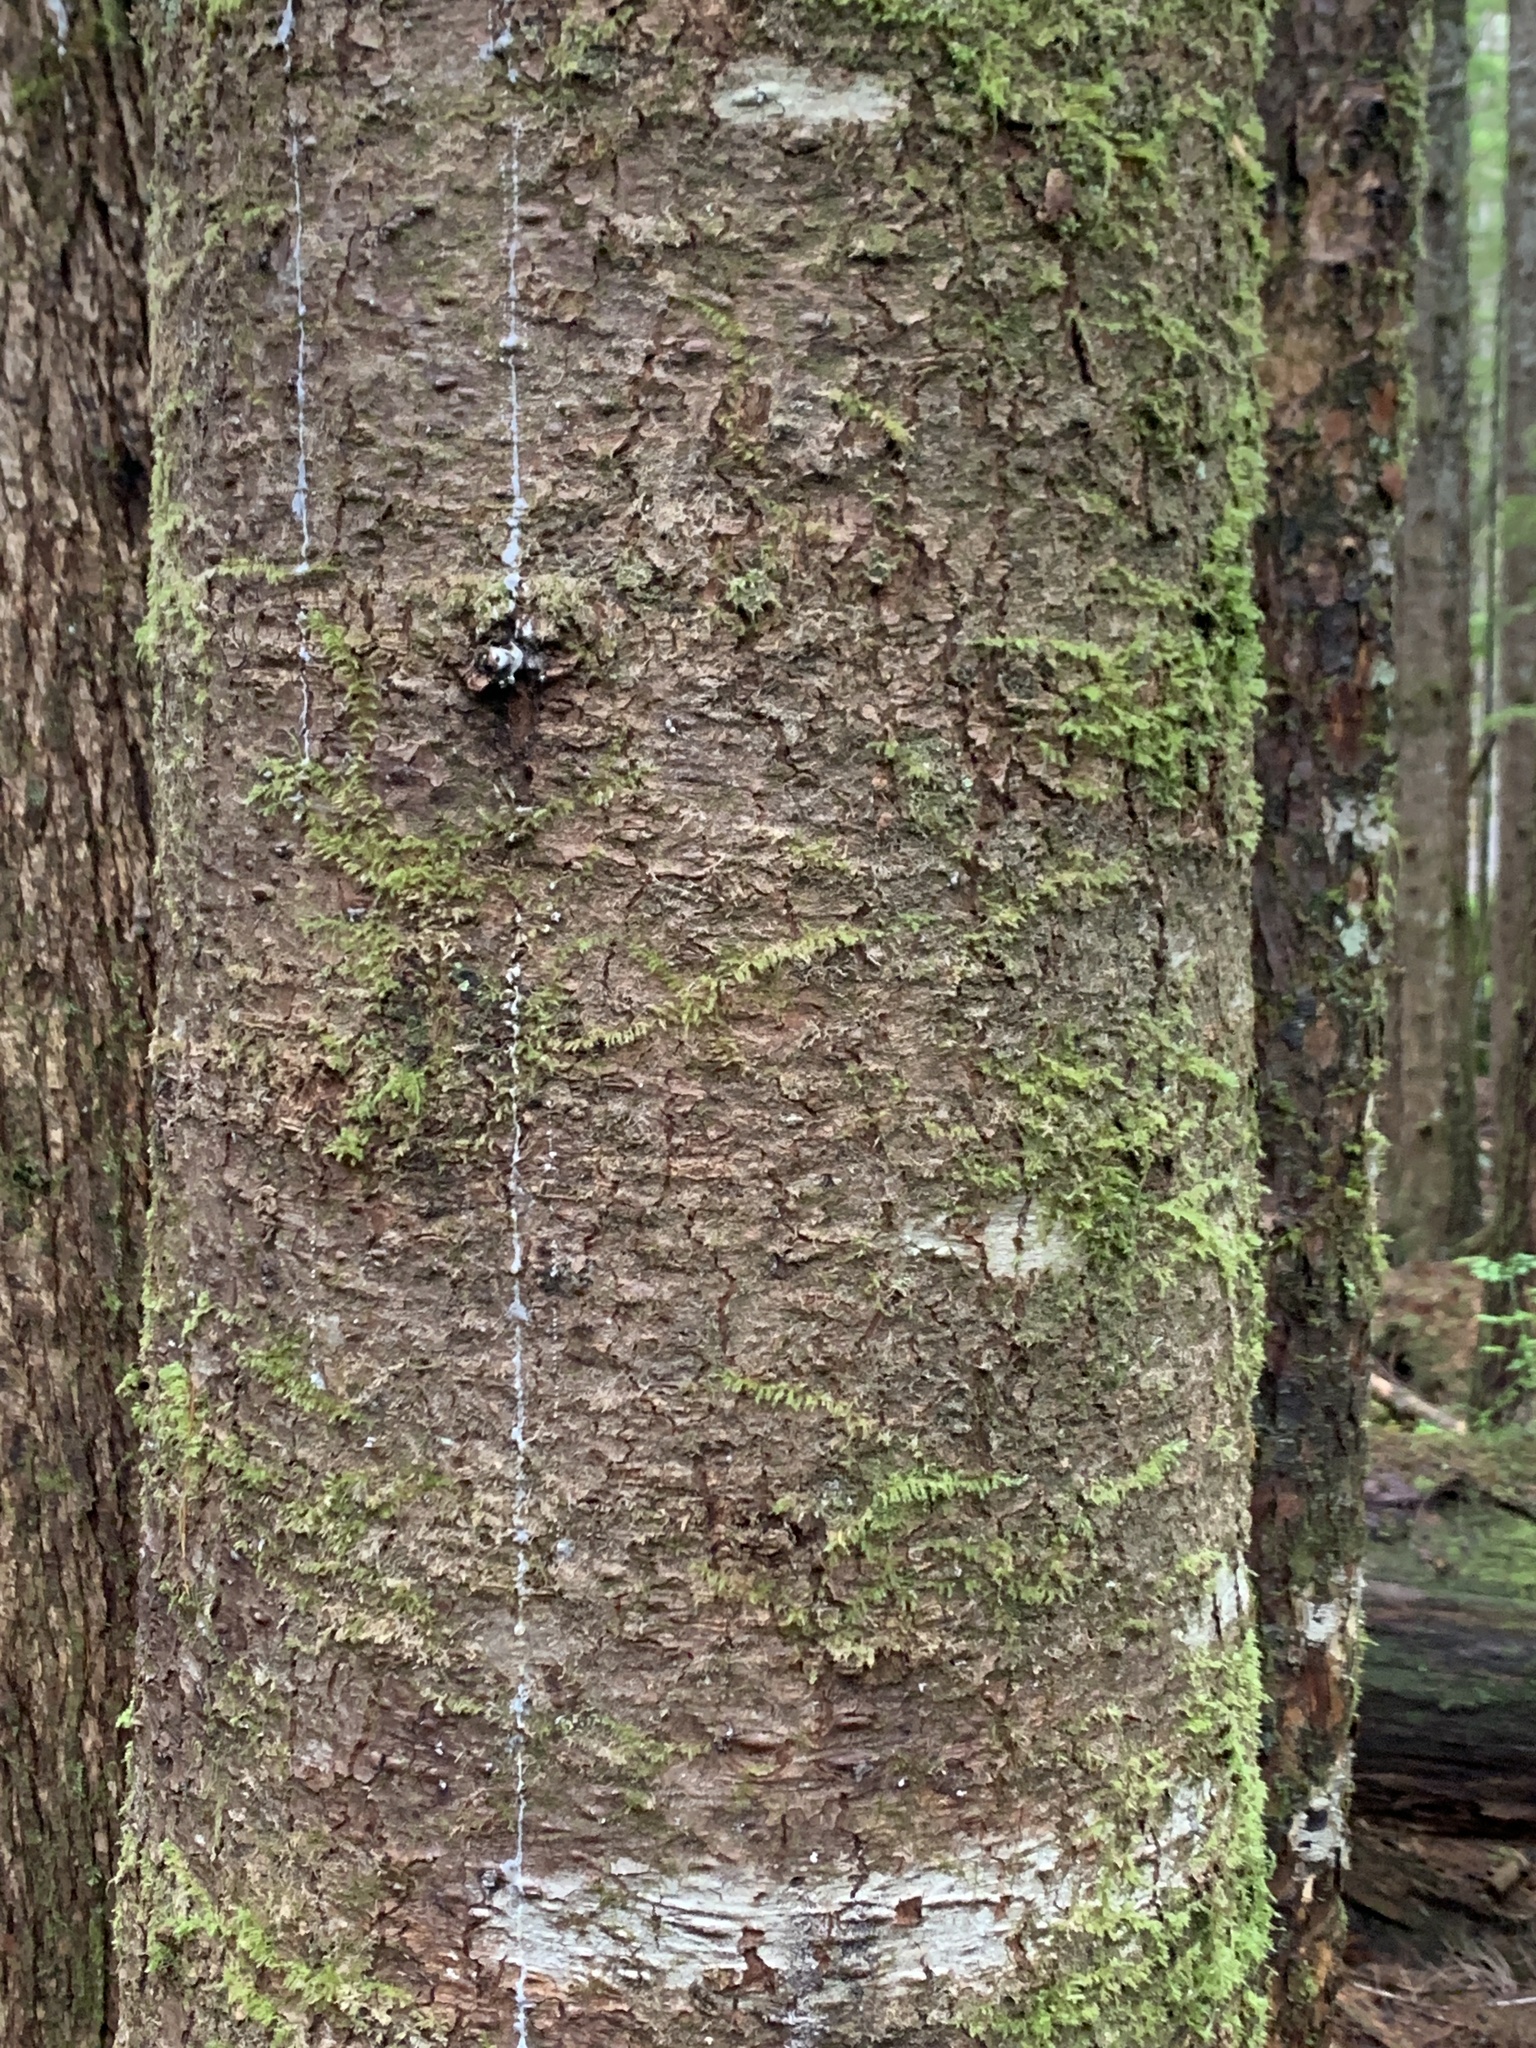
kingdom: Plantae
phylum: Tracheophyta
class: Pinopsida
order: Pinales
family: Pinaceae
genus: Pinus
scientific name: Pinus monticola
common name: Western white pine
